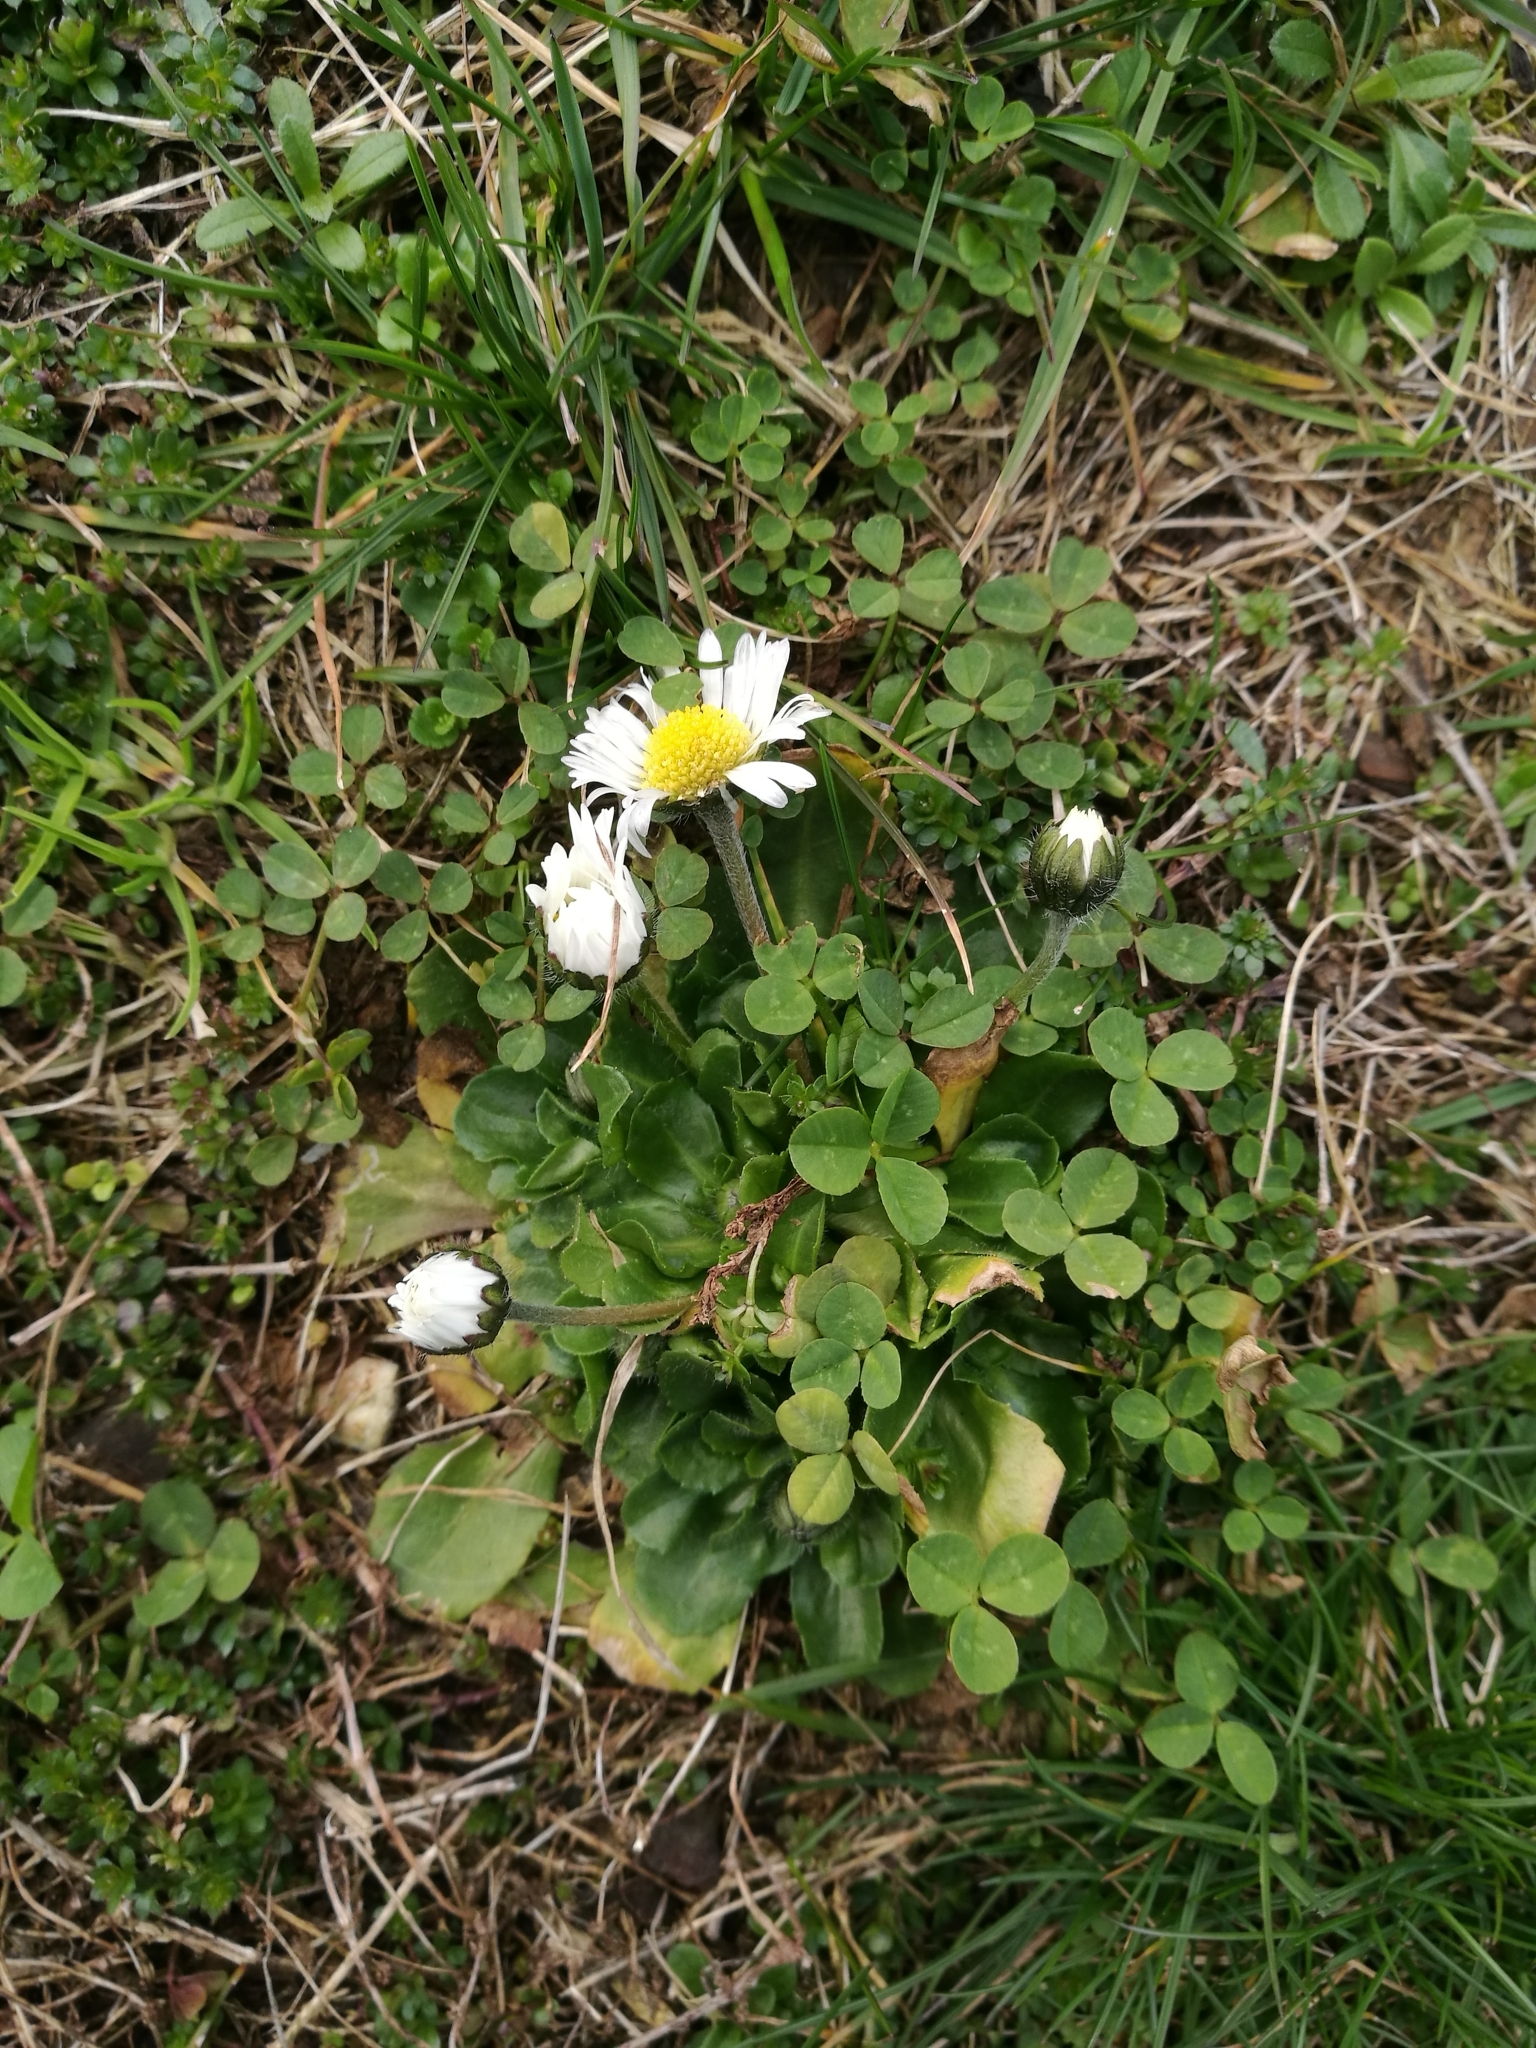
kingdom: Plantae
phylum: Tracheophyta
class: Magnoliopsida
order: Asterales
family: Asteraceae
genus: Bellis
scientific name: Bellis perennis
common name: Lawndaisy
